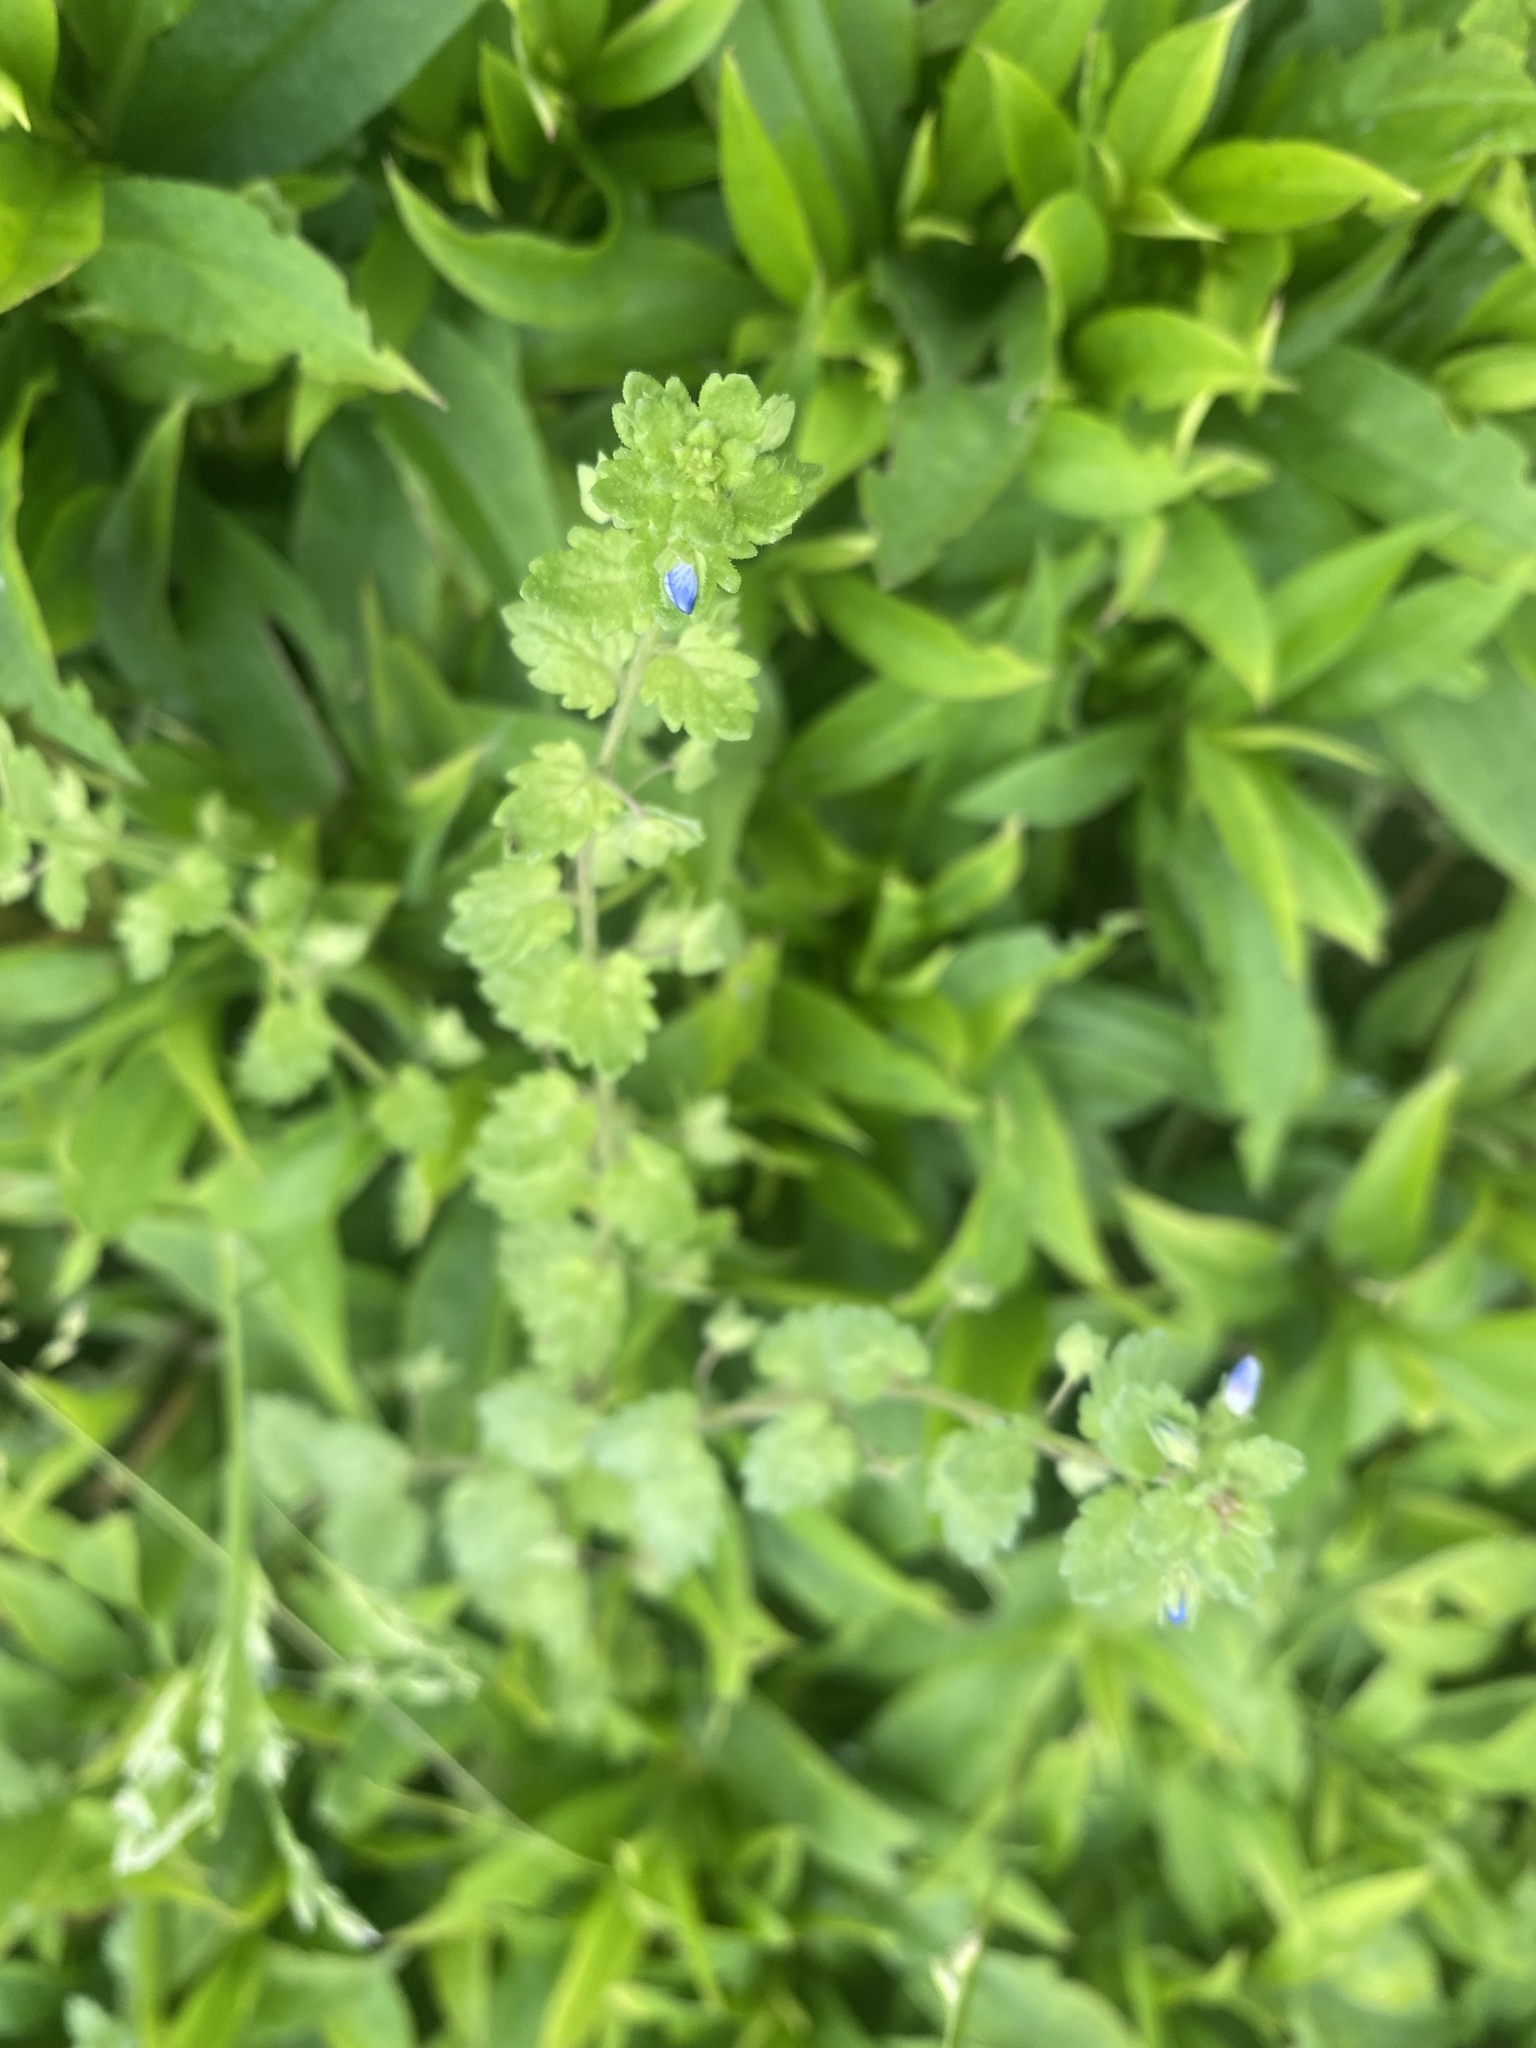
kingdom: Plantae
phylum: Tracheophyta
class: Magnoliopsida
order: Lamiales
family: Plantaginaceae
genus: Veronica
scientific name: Veronica polita
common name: Grey field-speedwell
